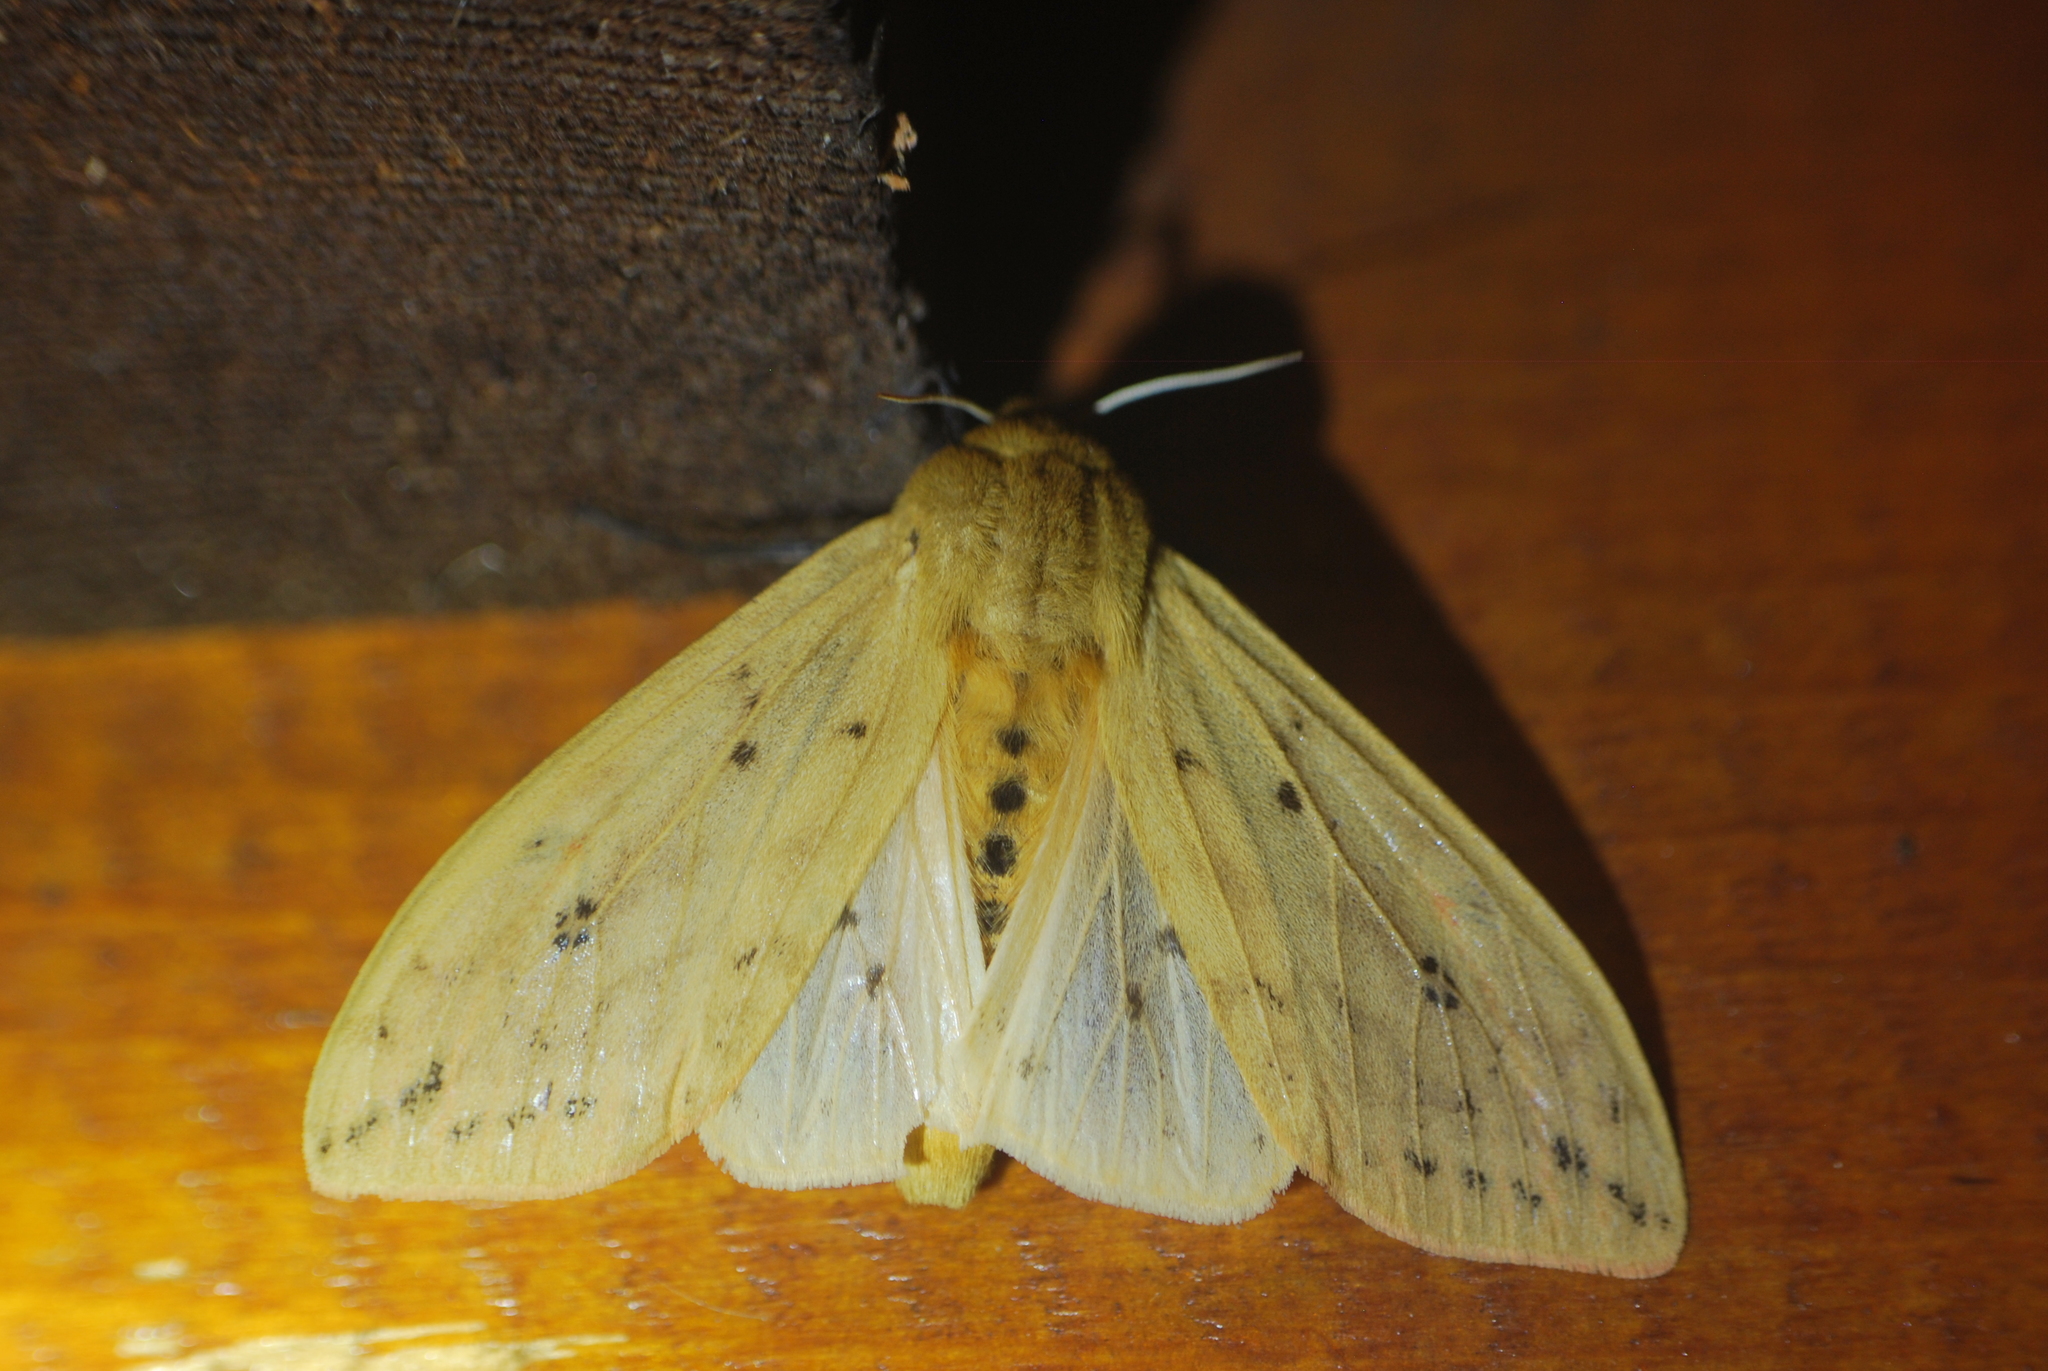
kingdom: Animalia
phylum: Arthropoda
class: Insecta
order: Lepidoptera
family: Erebidae
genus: Pyrrharctia
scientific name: Pyrrharctia isabella
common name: Isabella tiger moth
